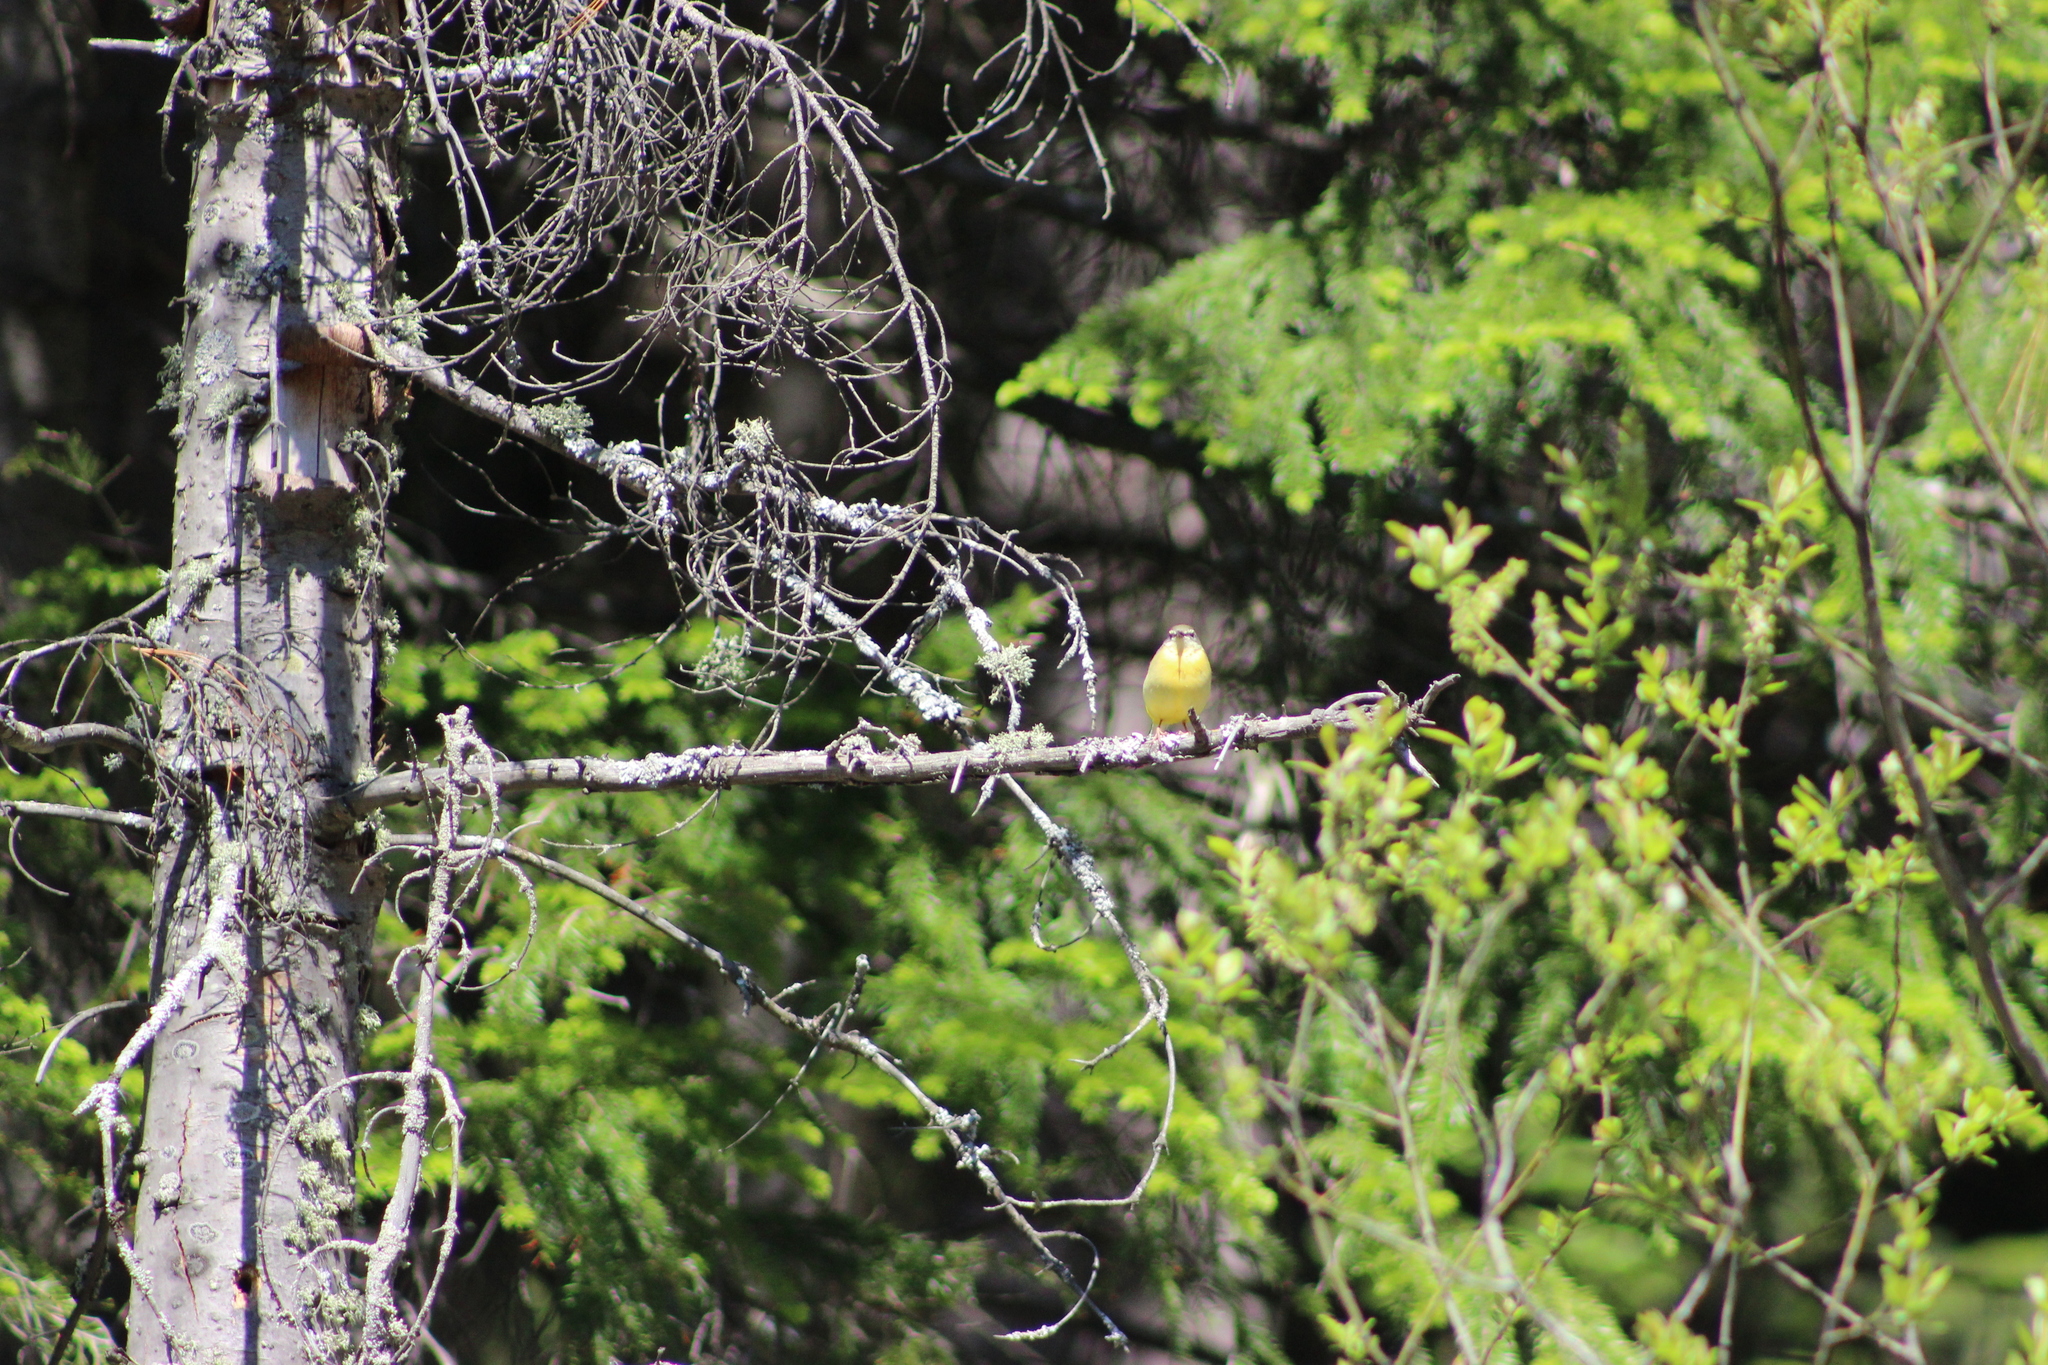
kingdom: Animalia
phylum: Chordata
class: Aves
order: Passeriformes
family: Motacillidae
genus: Motacilla
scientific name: Motacilla cinerea
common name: Grey wagtail
